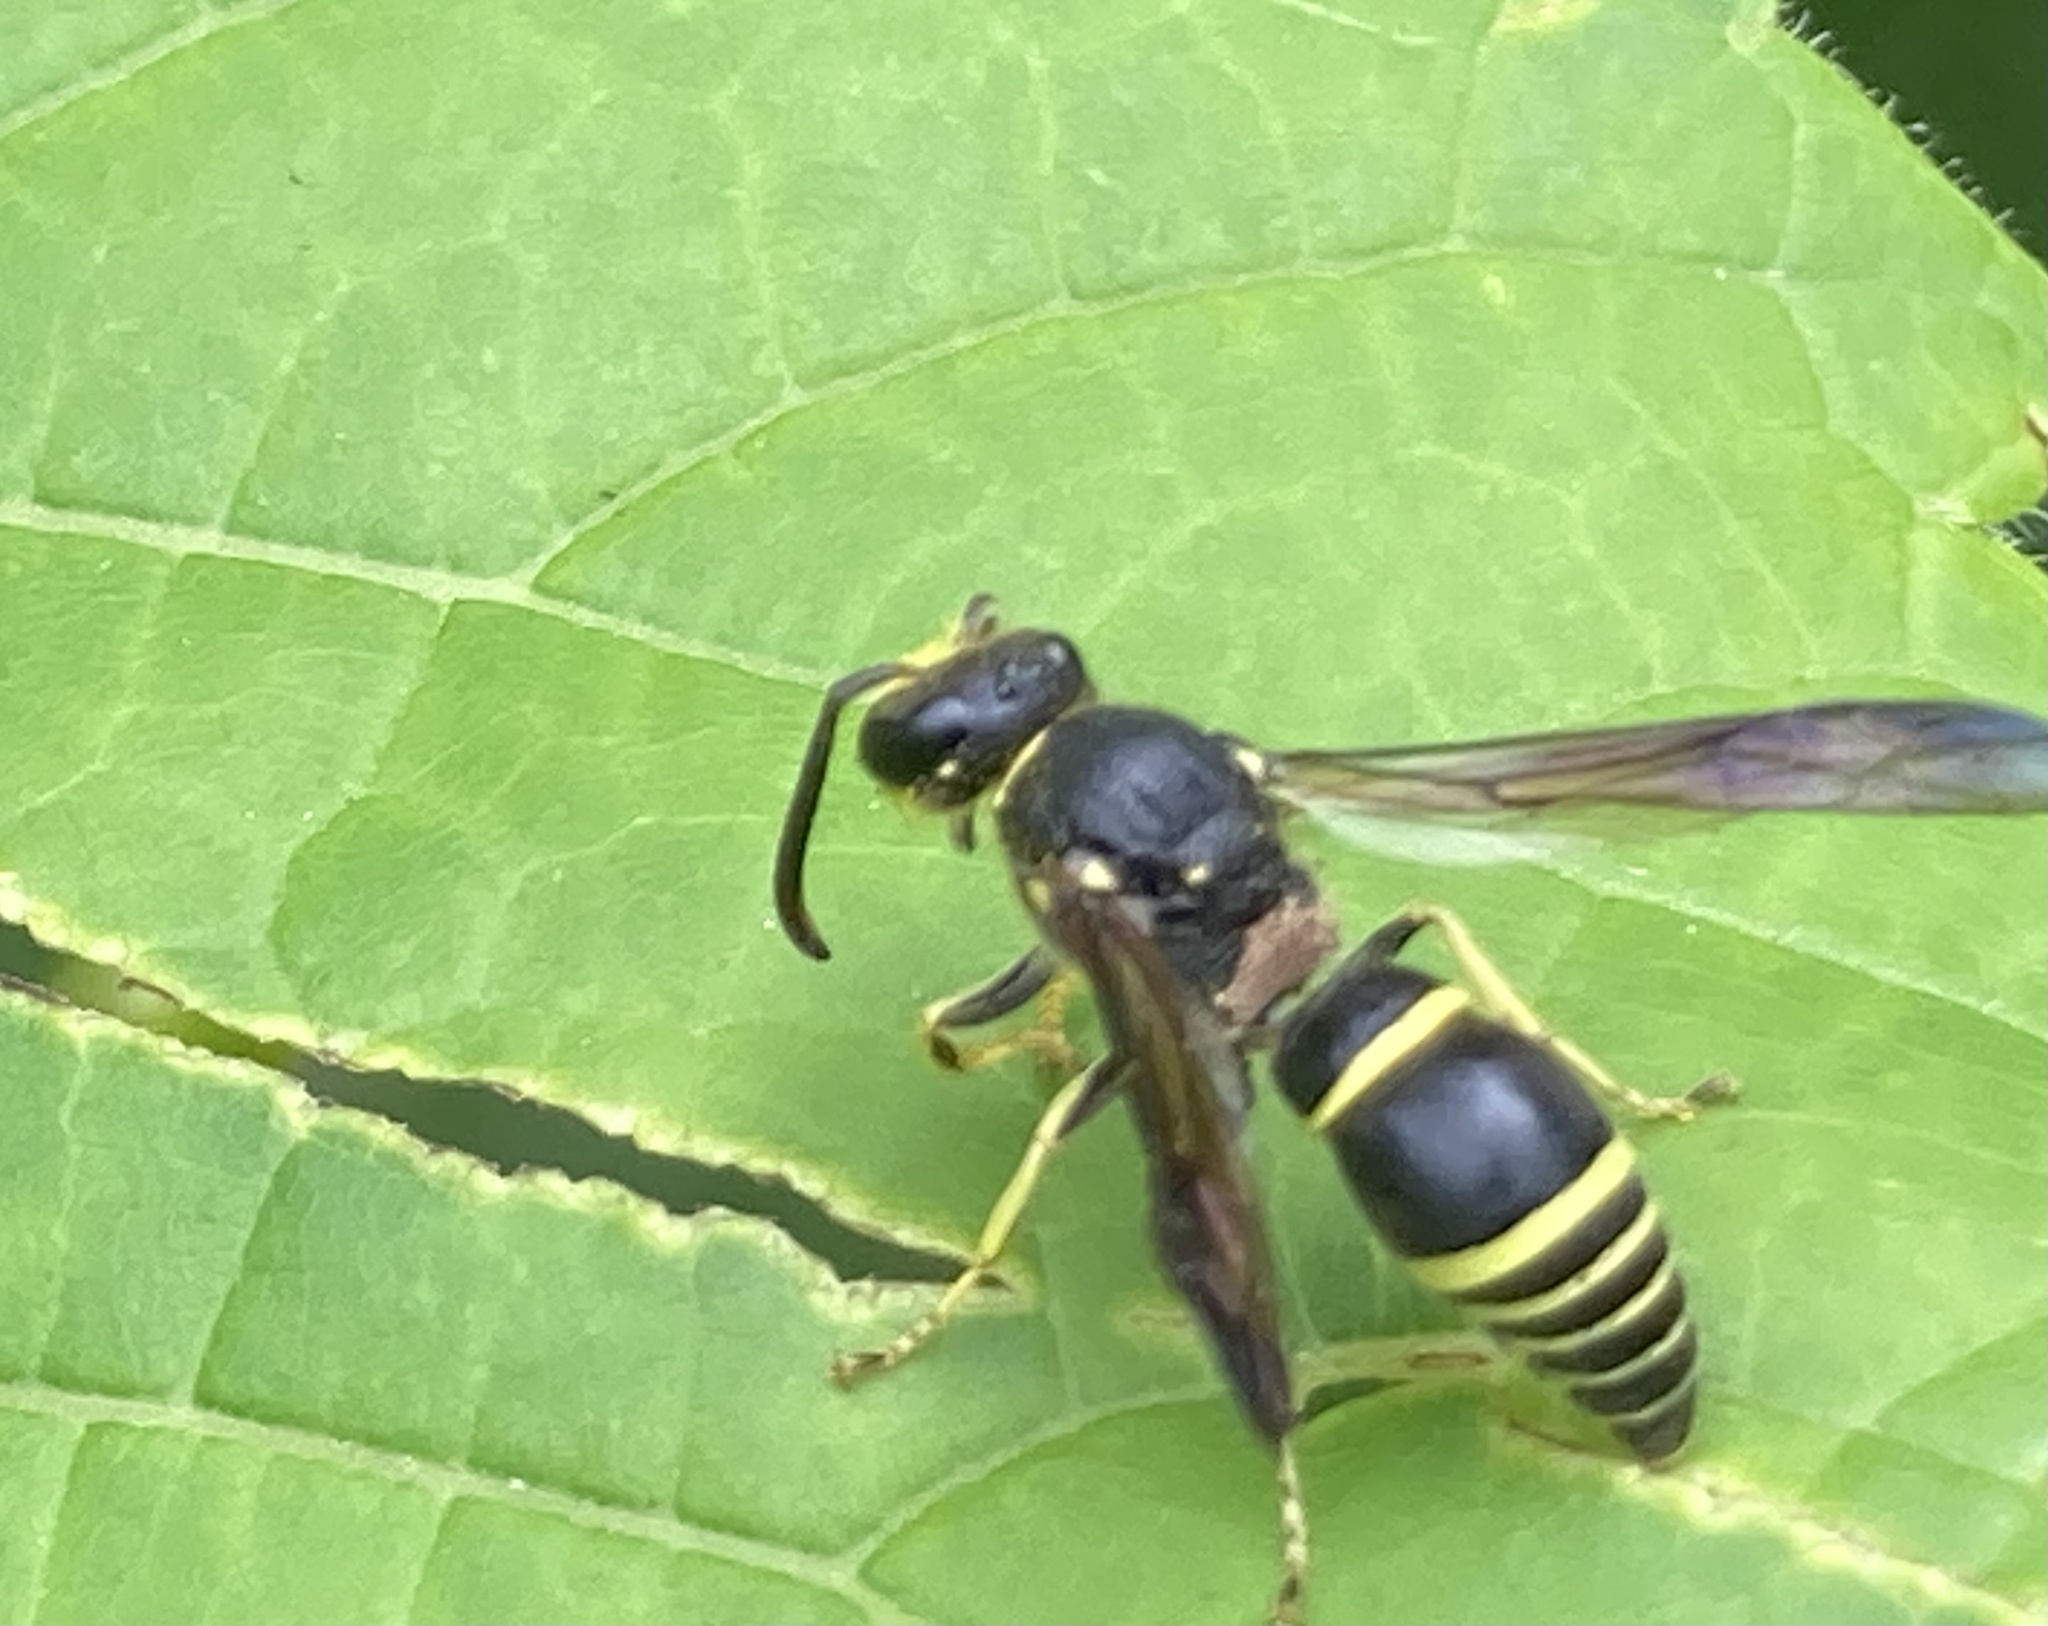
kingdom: Animalia
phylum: Arthropoda
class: Insecta
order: Hymenoptera
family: Vespidae
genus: Ancistrocerus
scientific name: Ancistrocerus
